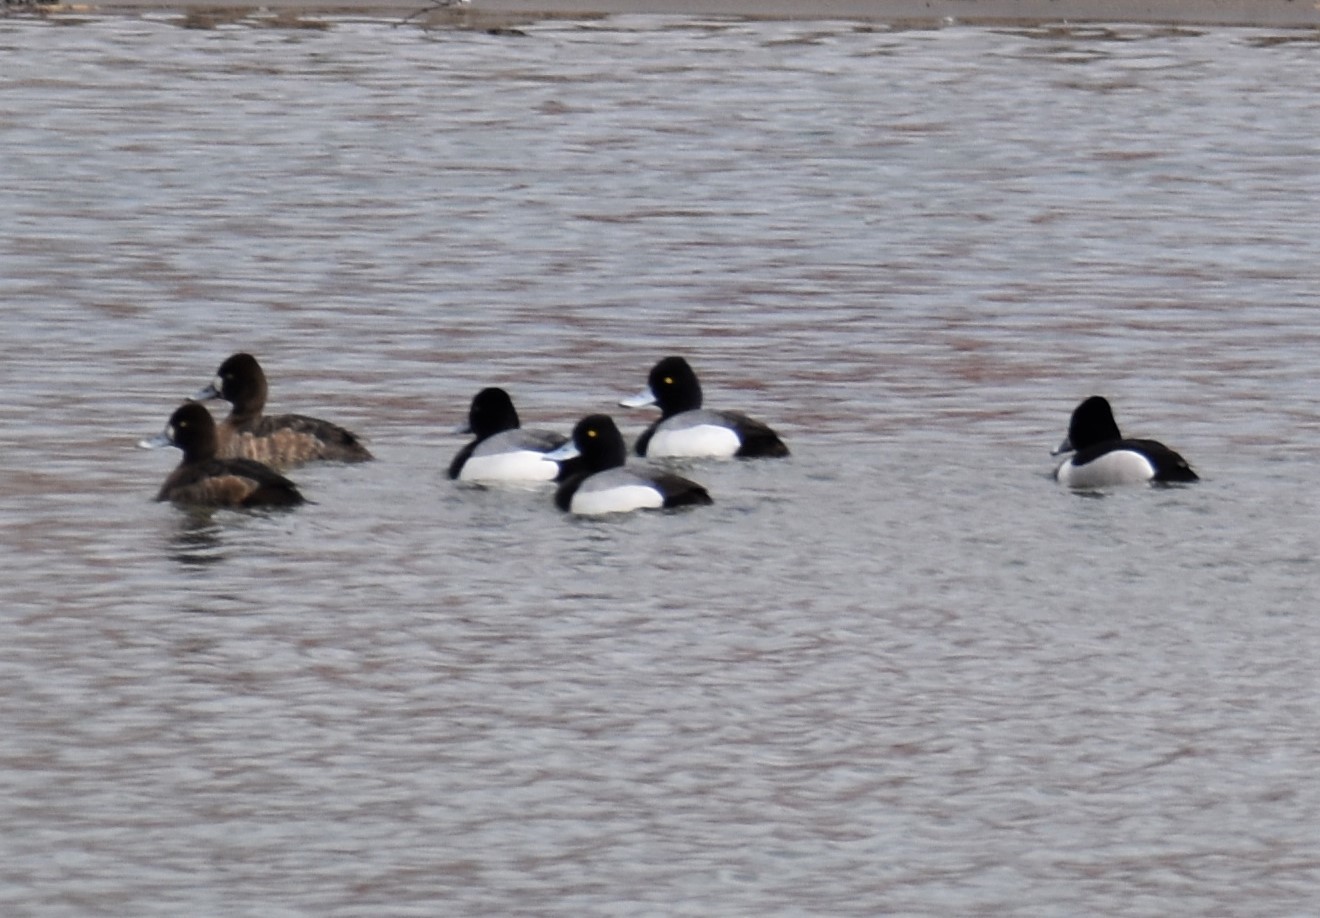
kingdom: Animalia
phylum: Chordata
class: Aves
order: Anseriformes
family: Anatidae
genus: Aythya
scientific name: Aythya affinis
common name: Lesser scaup
